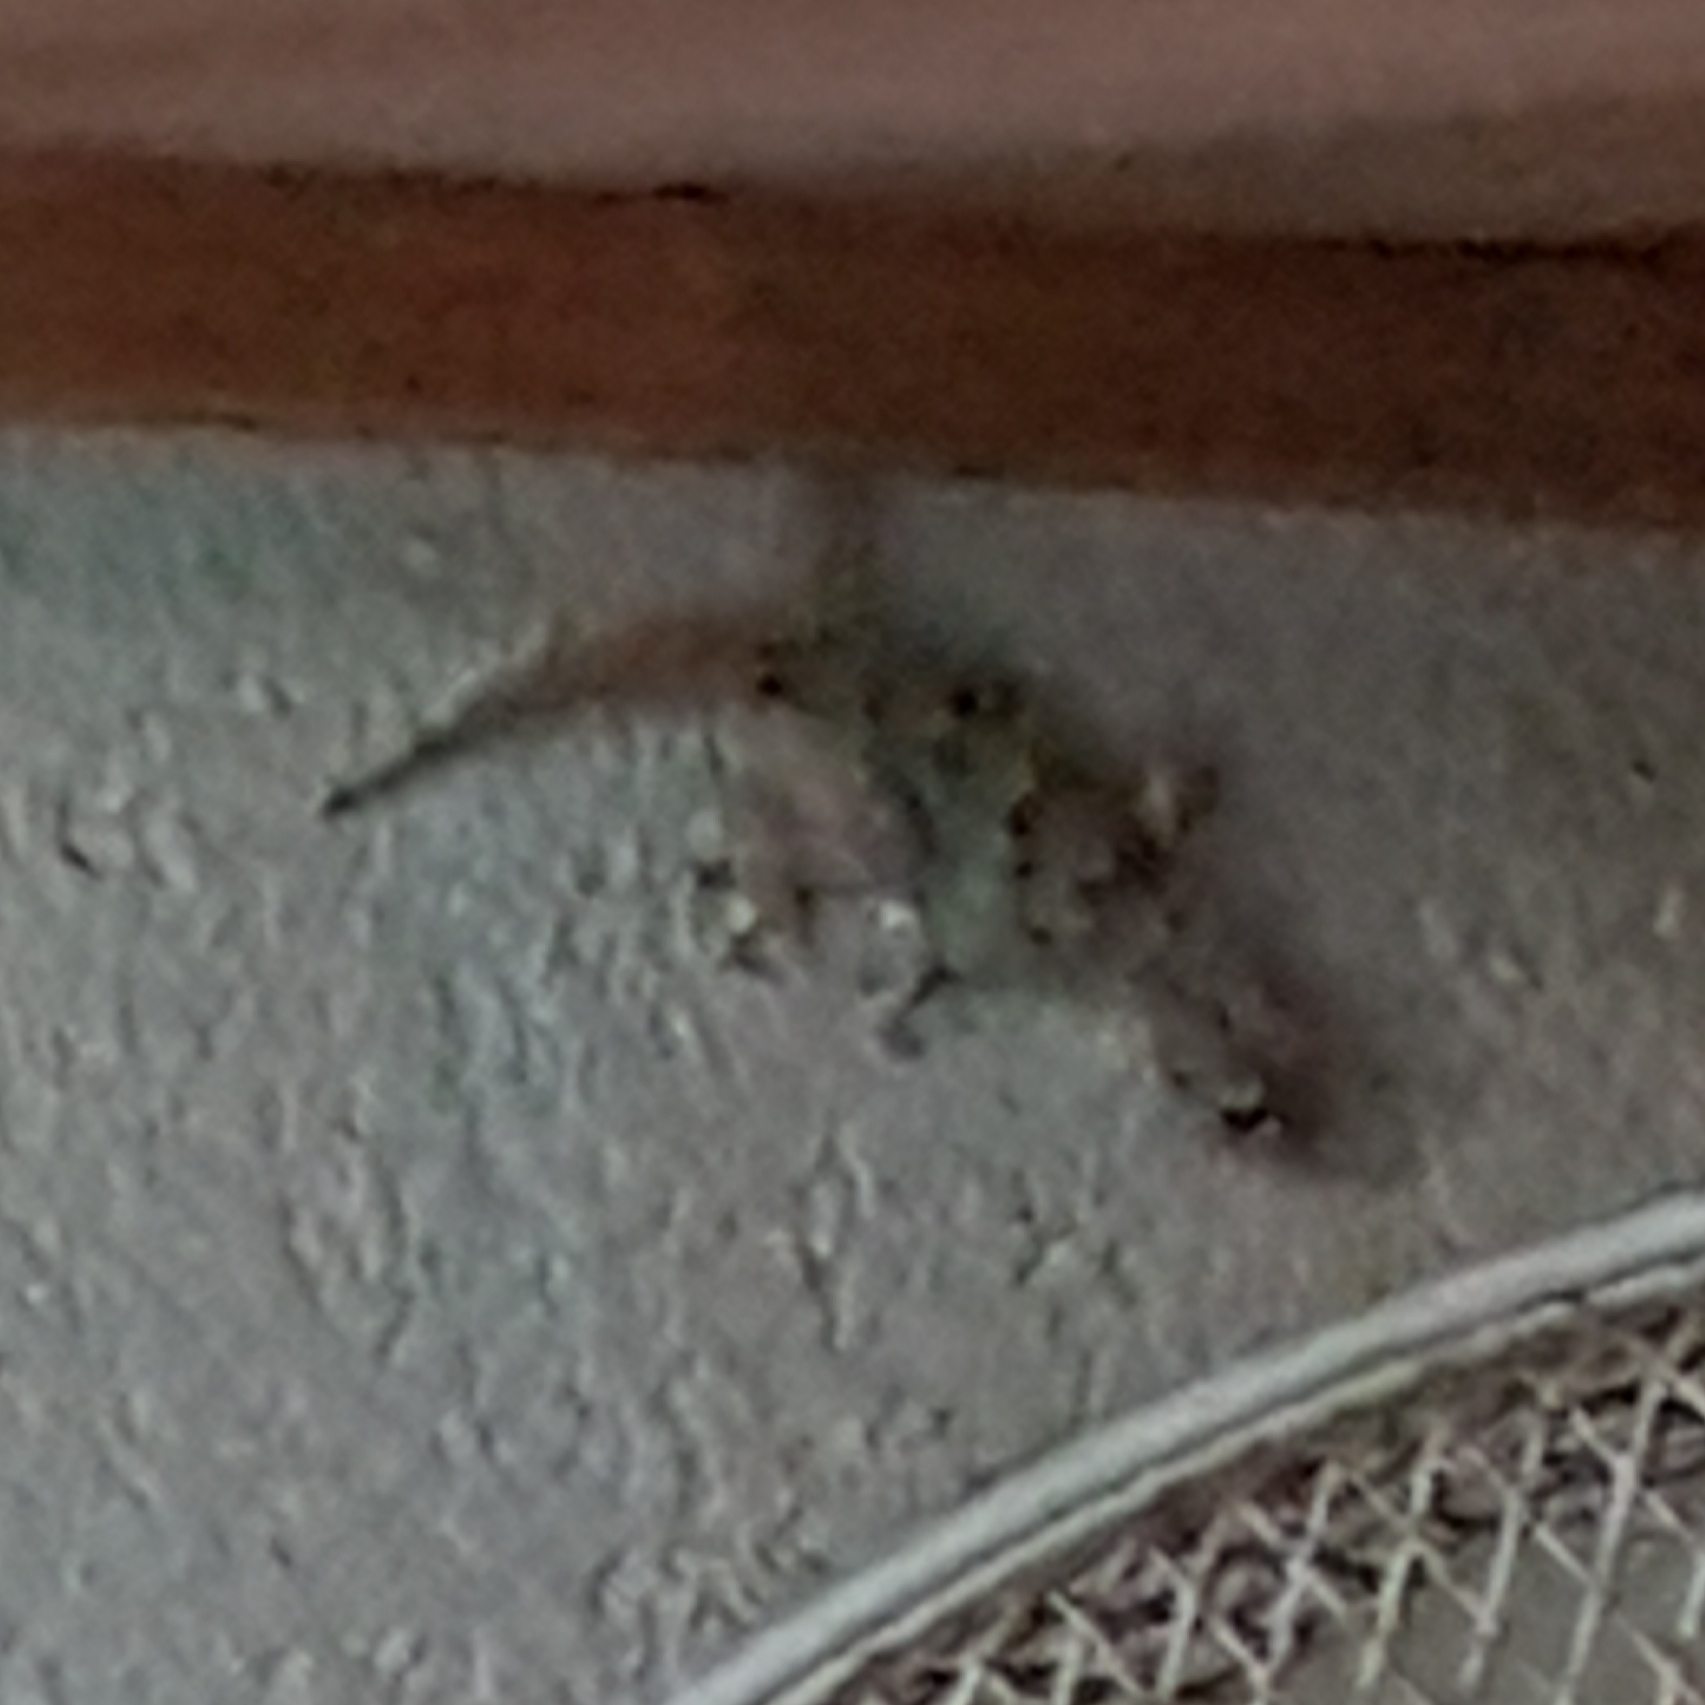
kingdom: Animalia
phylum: Chordata
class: Squamata
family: Phyllodactylidae
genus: Tarentola
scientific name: Tarentola mauritanica
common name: Moorish gecko
